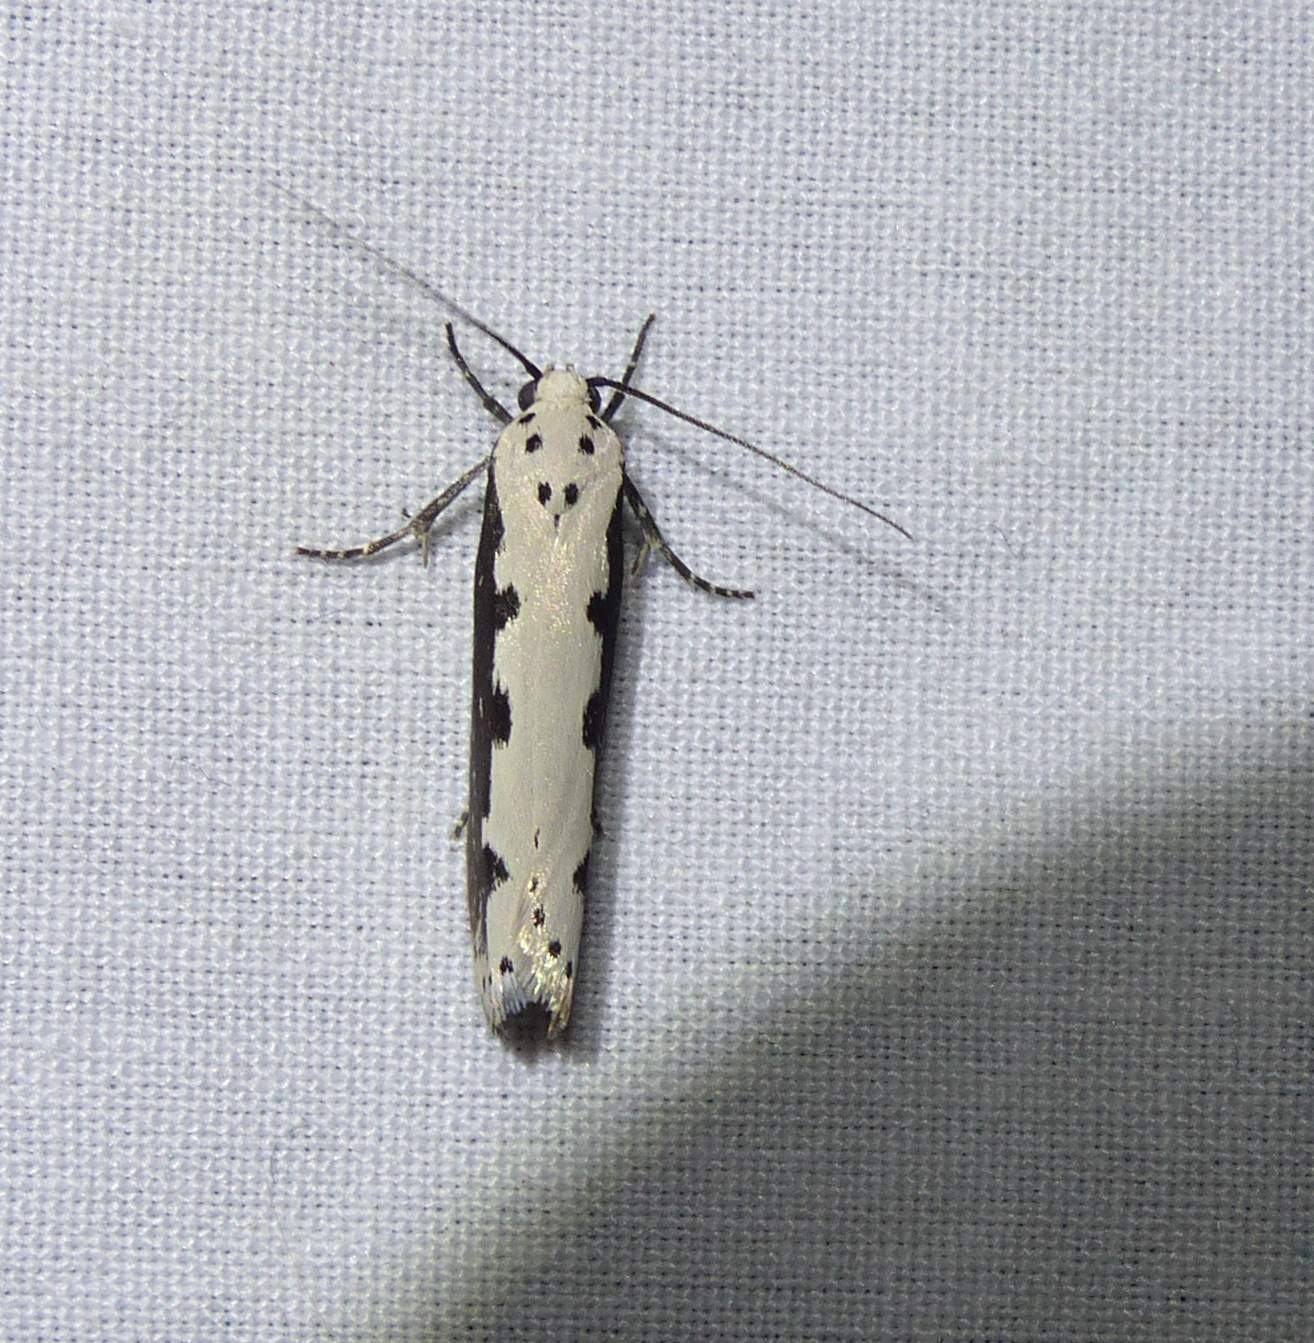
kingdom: Animalia
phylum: Arthropoda
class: Insecta
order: Lepidoptera
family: Ethmiidae
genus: Ethmia
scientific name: Ethmia bipunctella
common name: Bordered ermel
